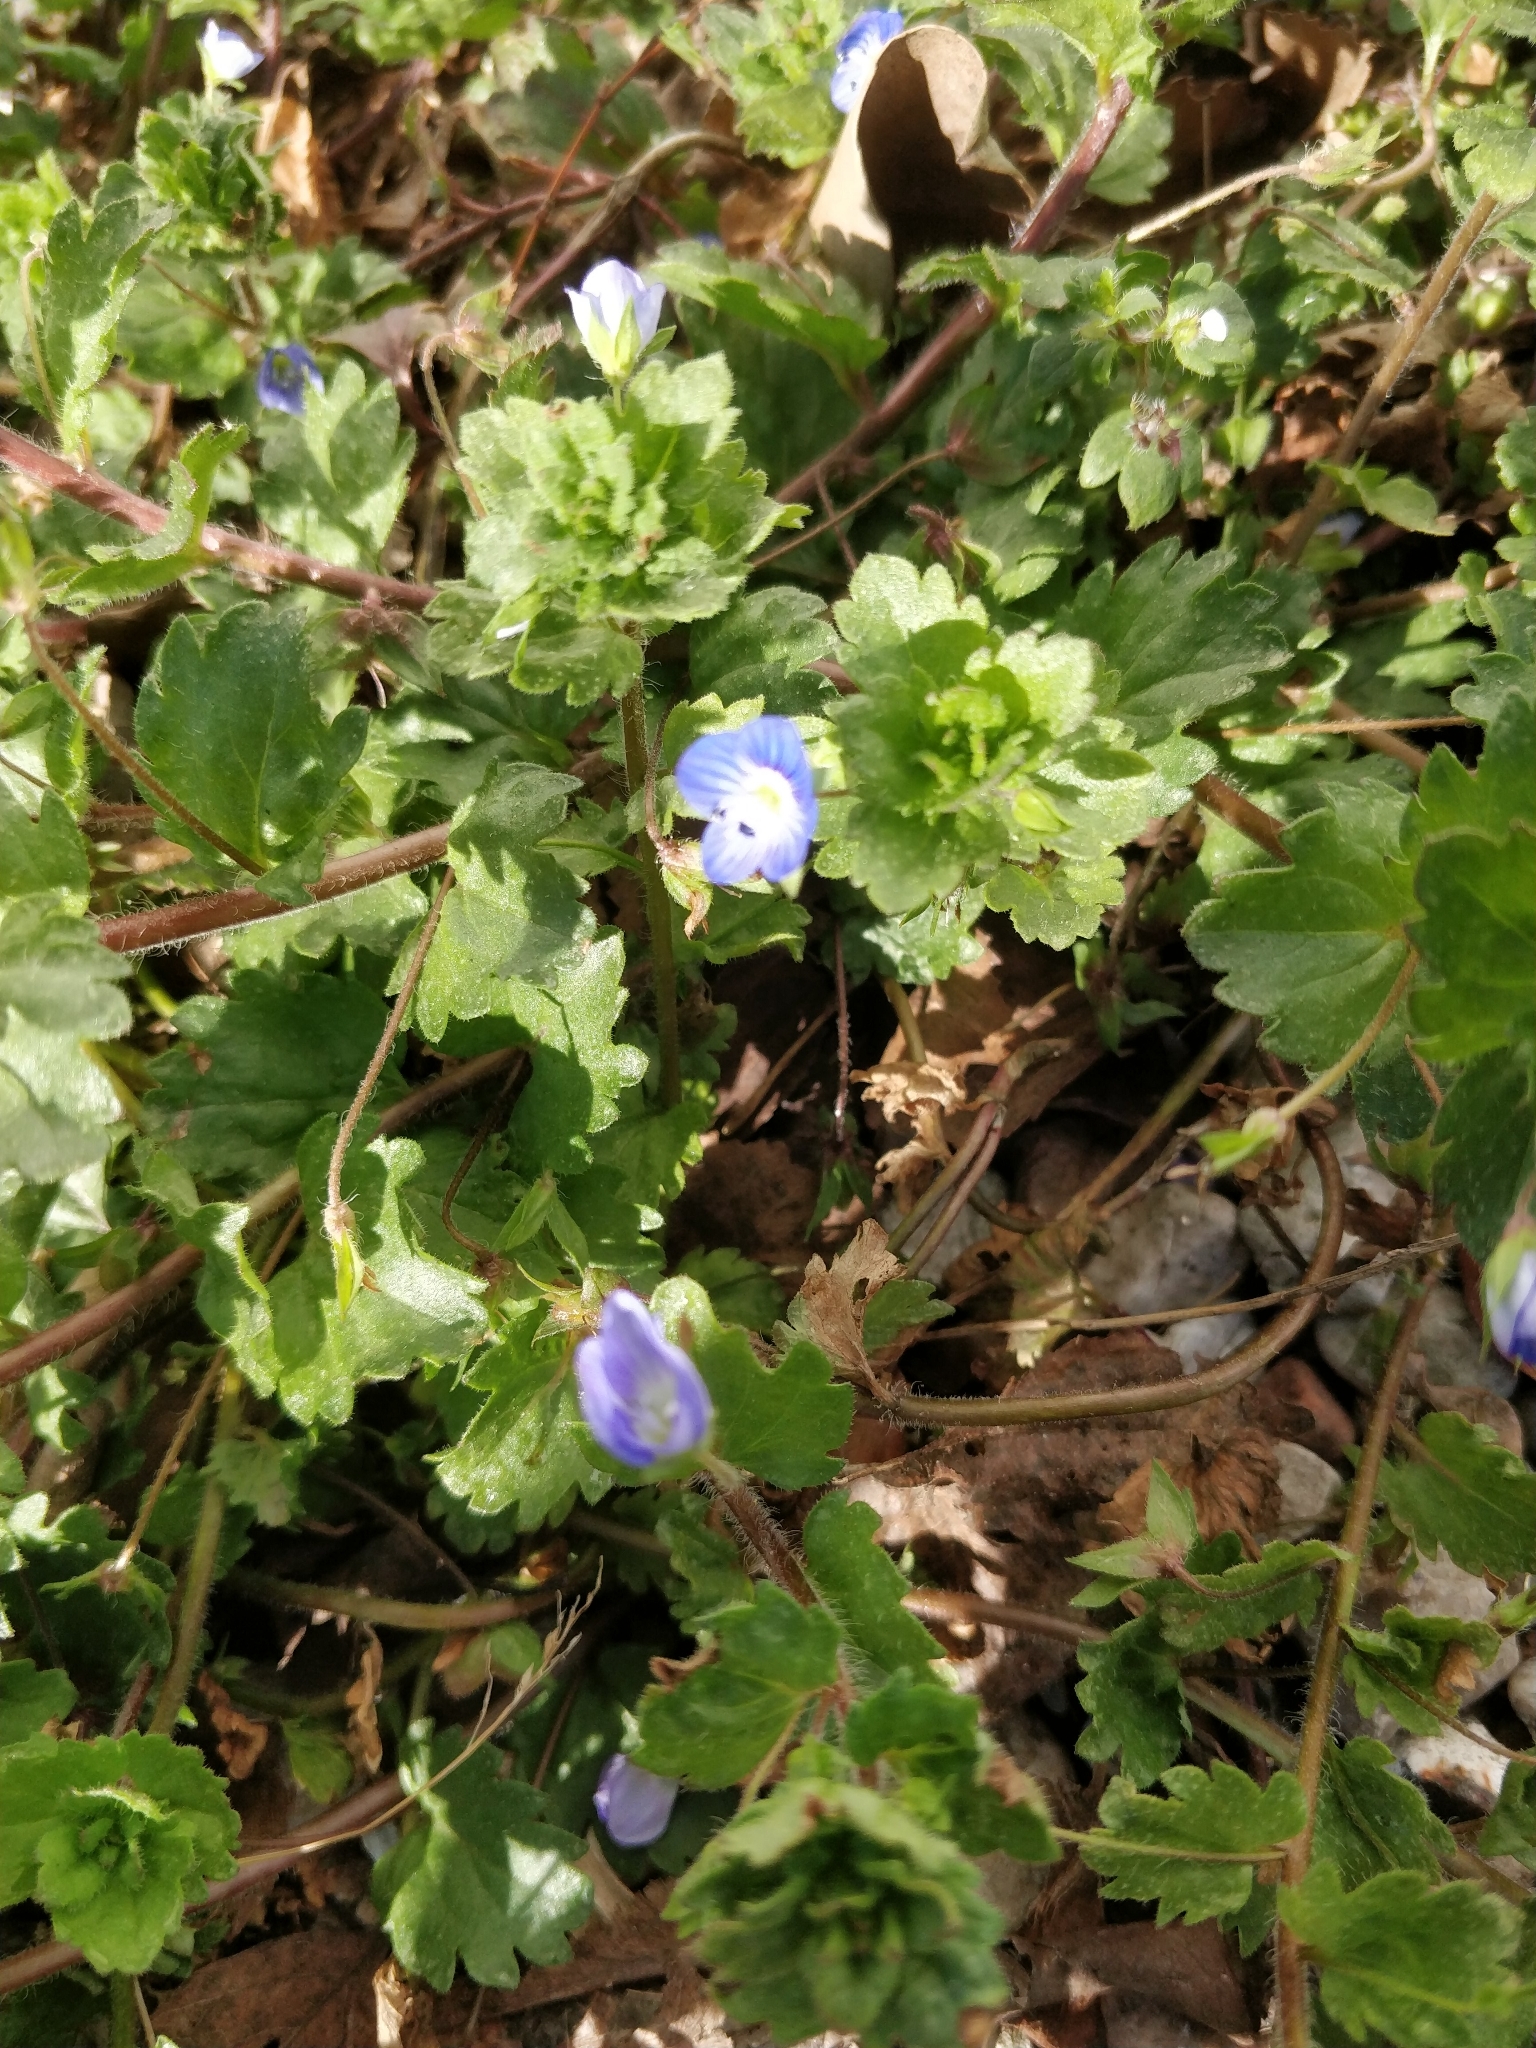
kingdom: Plantae
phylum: Tracheophyta
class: Magnoliopsida
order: Lamiales
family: Plantaginaceae
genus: Veronica
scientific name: Veronica persica
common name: Common field-speedwell
